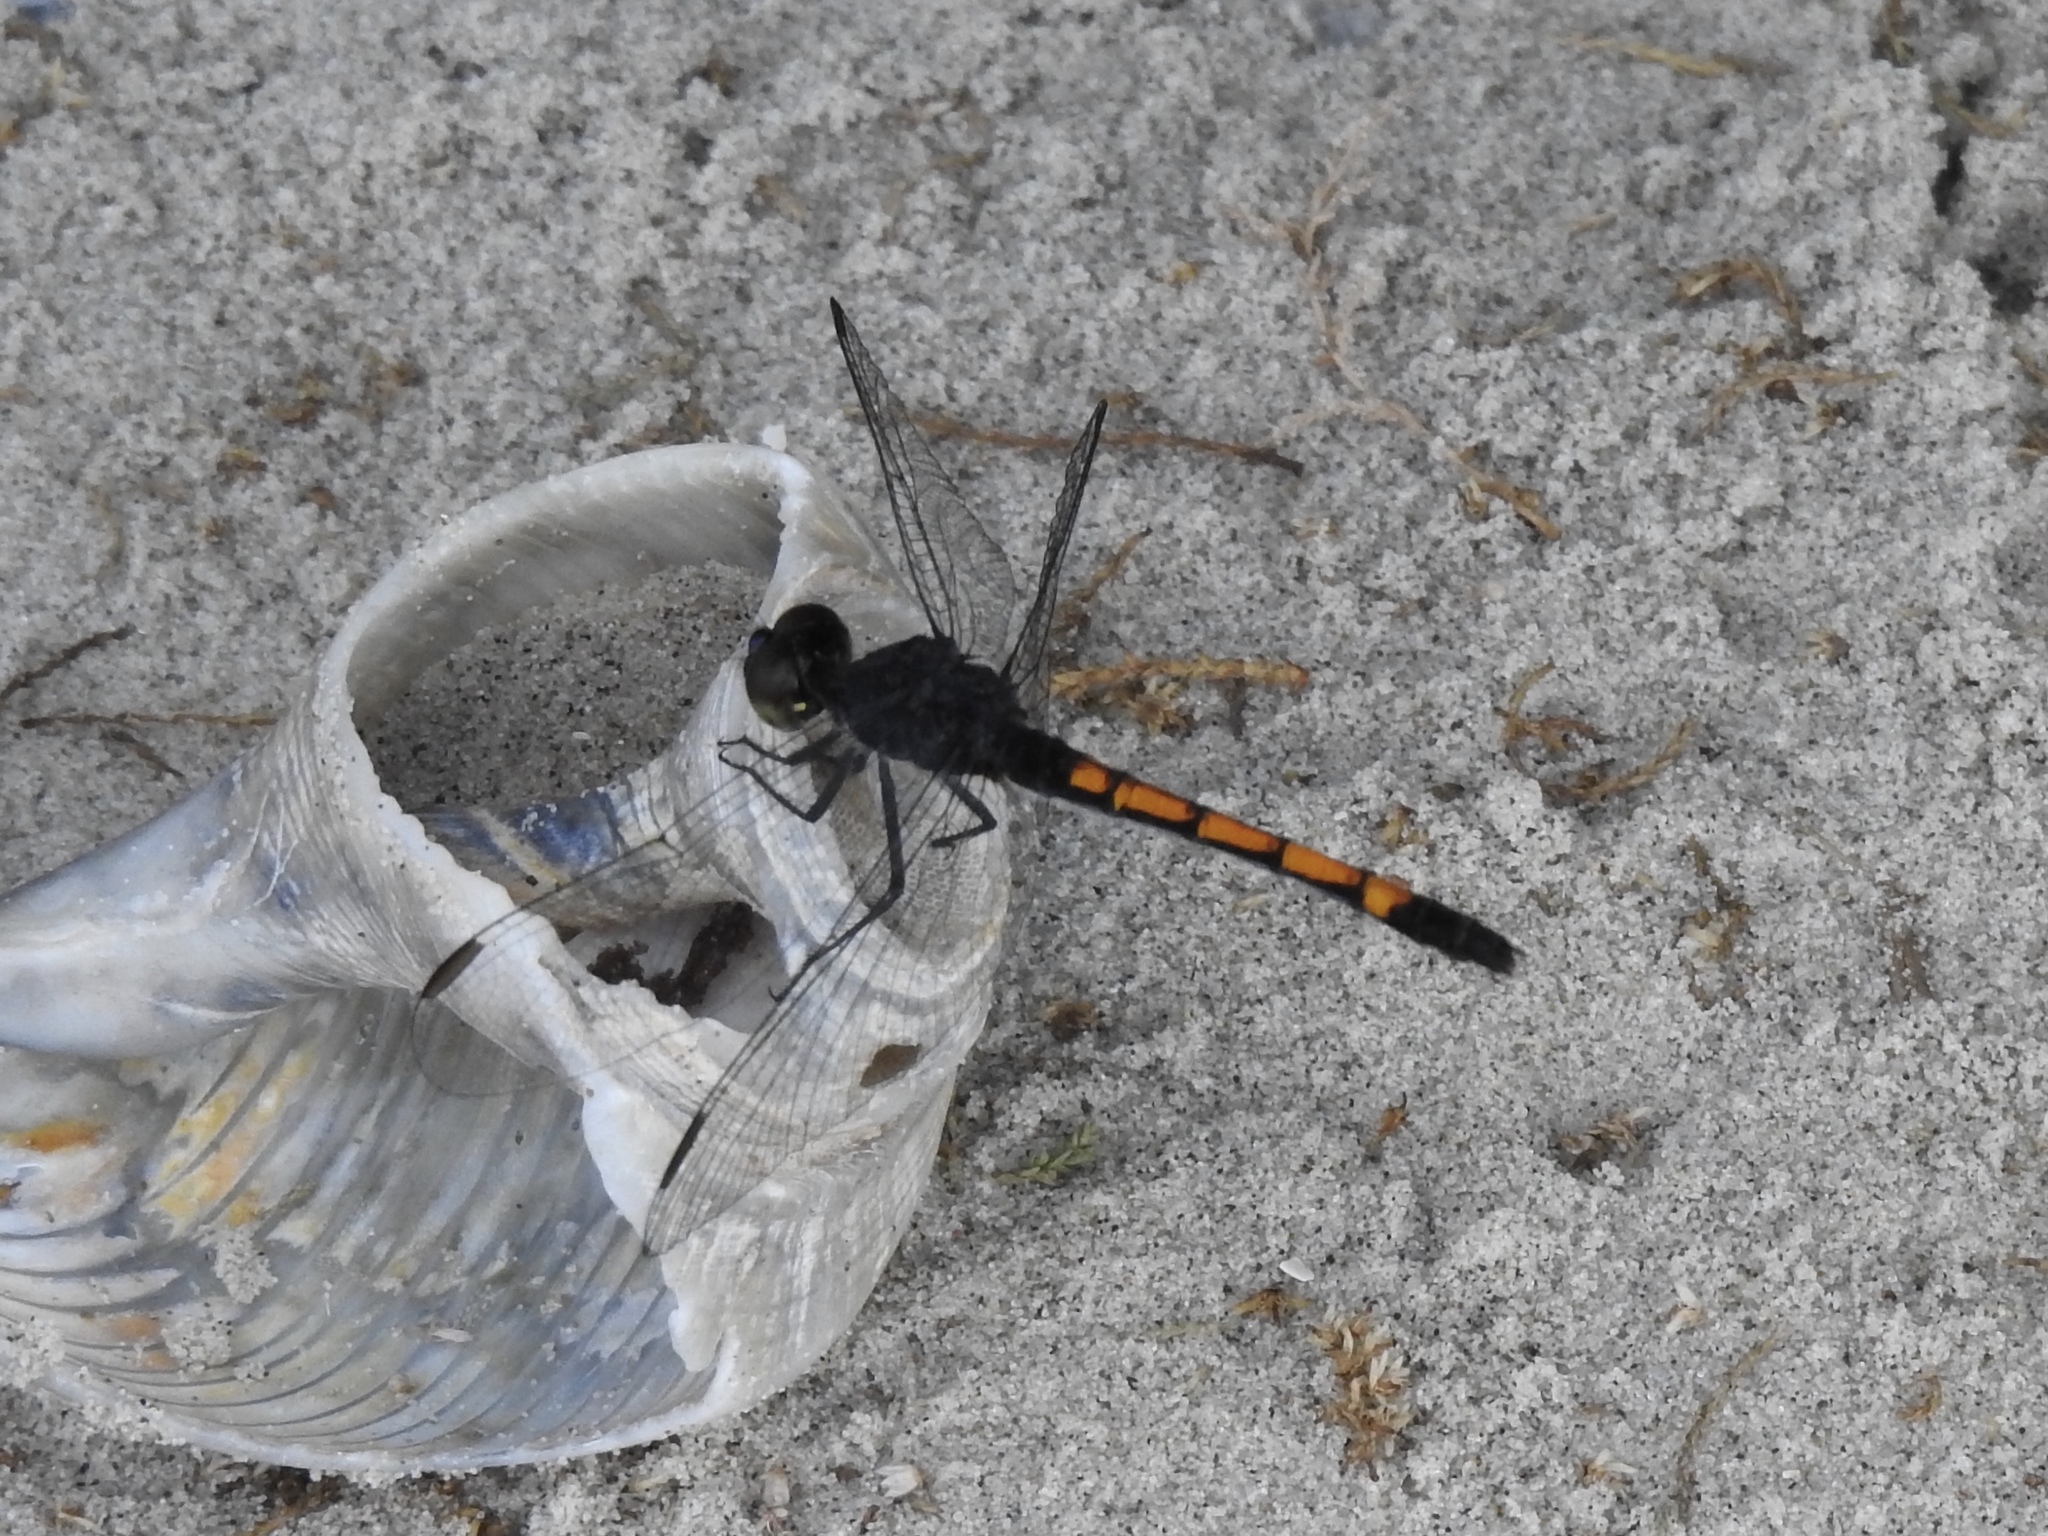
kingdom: Animalia
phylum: Arthropoda
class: Insecta
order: Odonata
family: Libellulidae
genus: Erythrodiplax
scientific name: Erythrodiplax berenice
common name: Seaside dragonlet
